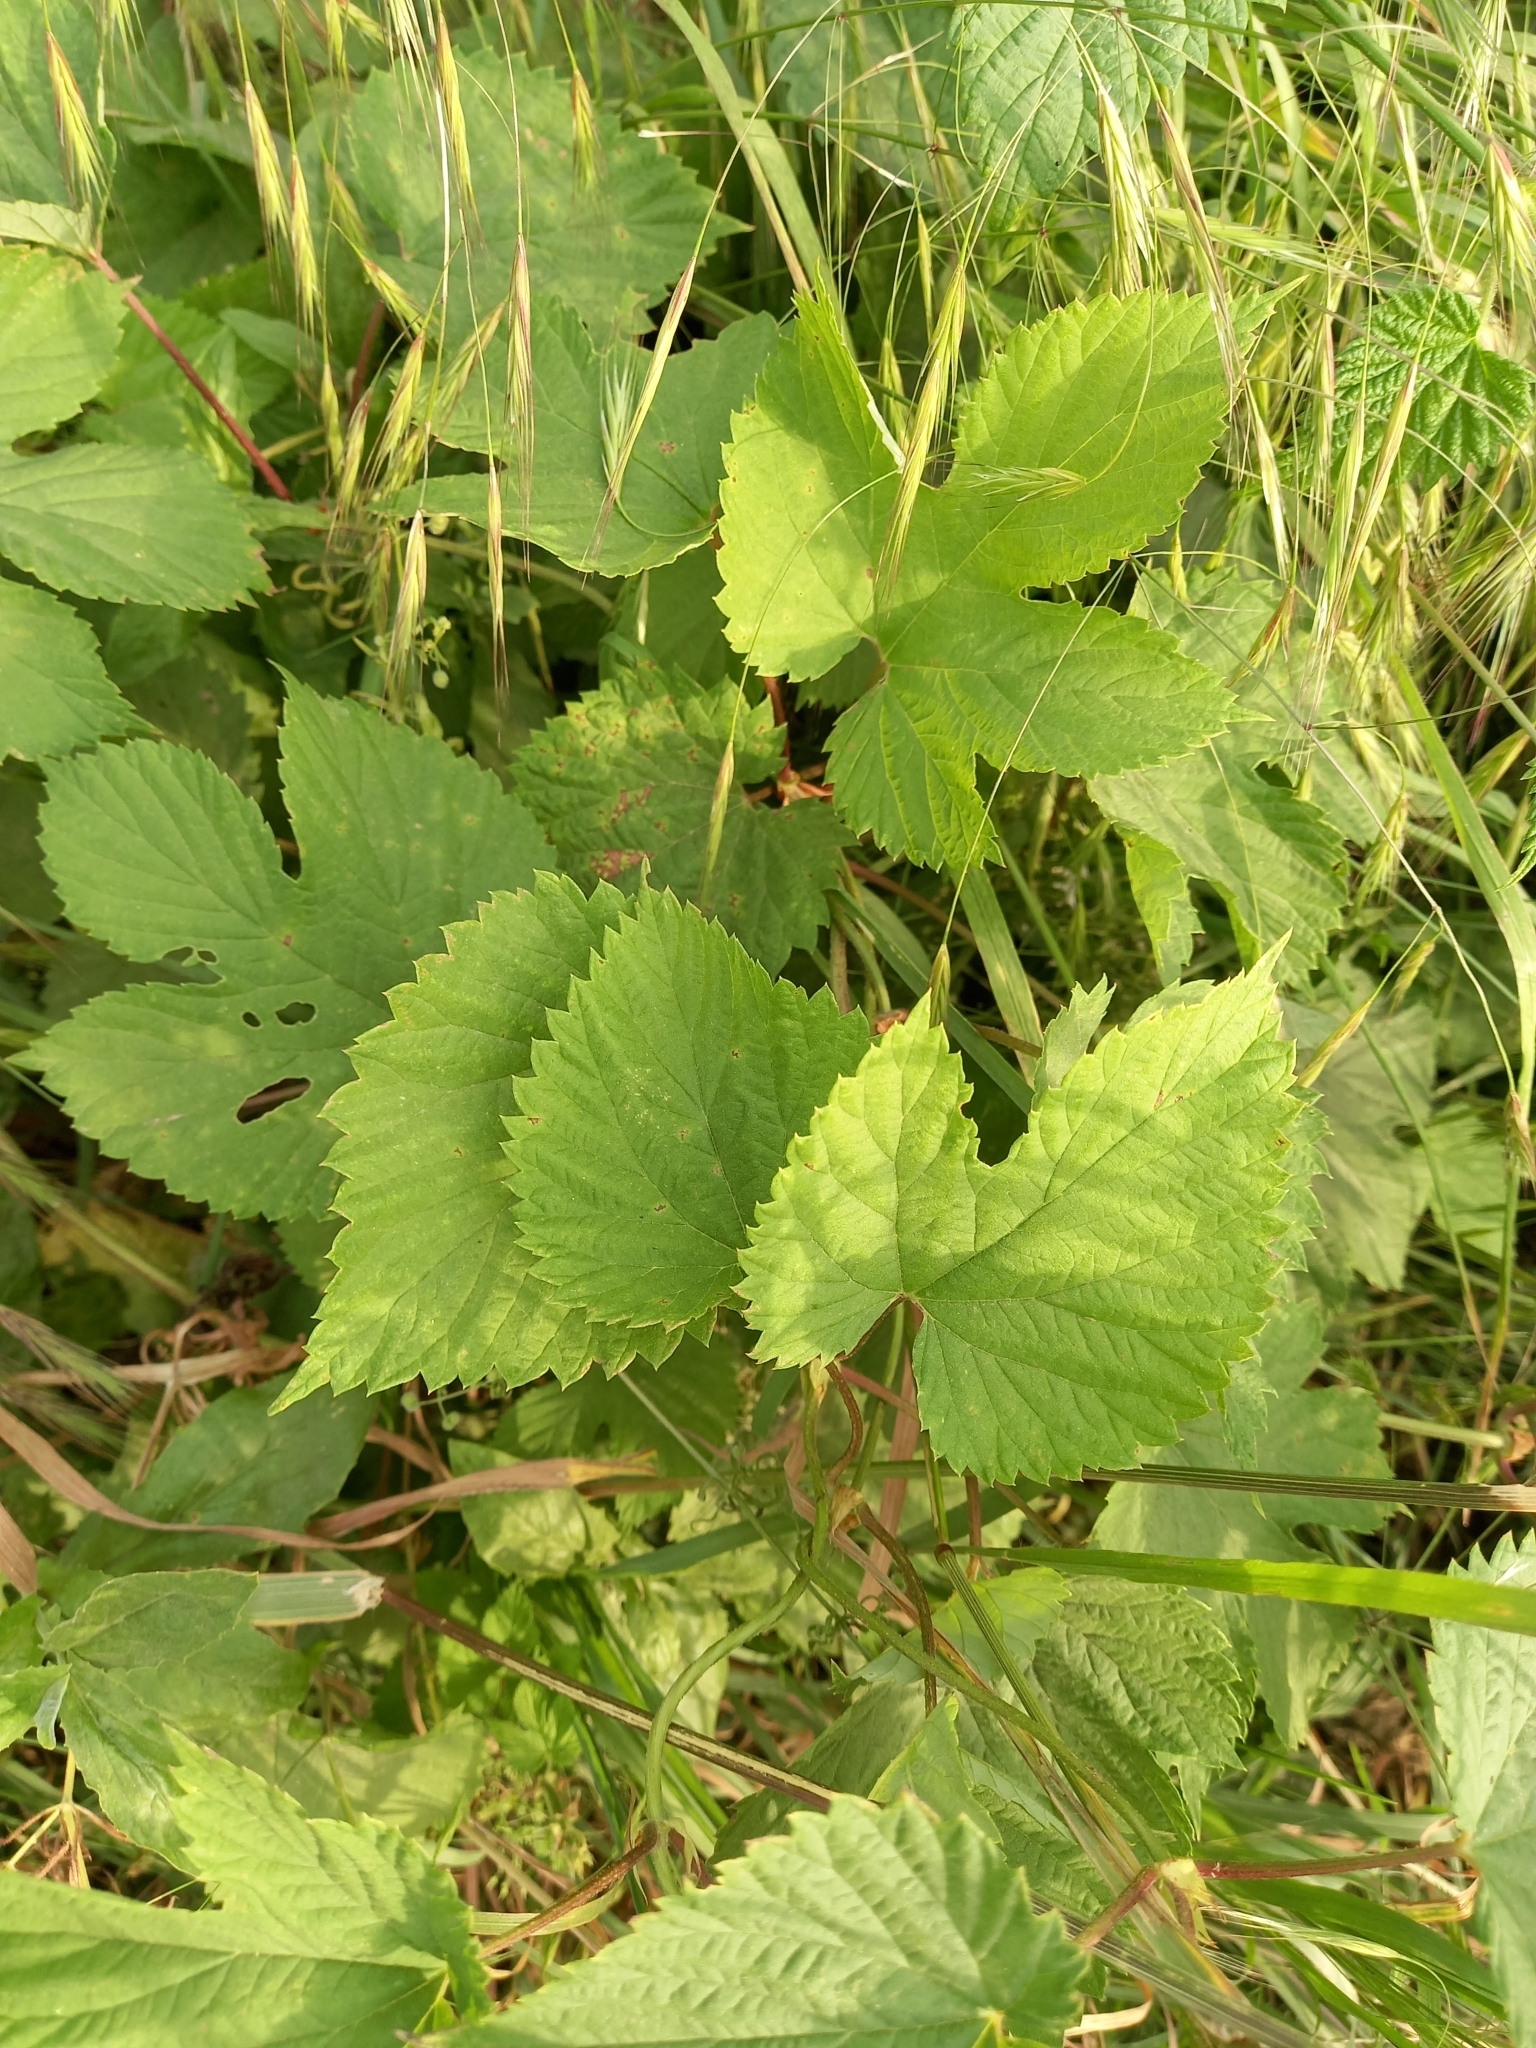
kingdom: Plantae
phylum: Tracheophyta
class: Magnoliopsida
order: Rosales
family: Cannabaceae
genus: Humulus
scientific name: Humulus lupulus
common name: Hop
